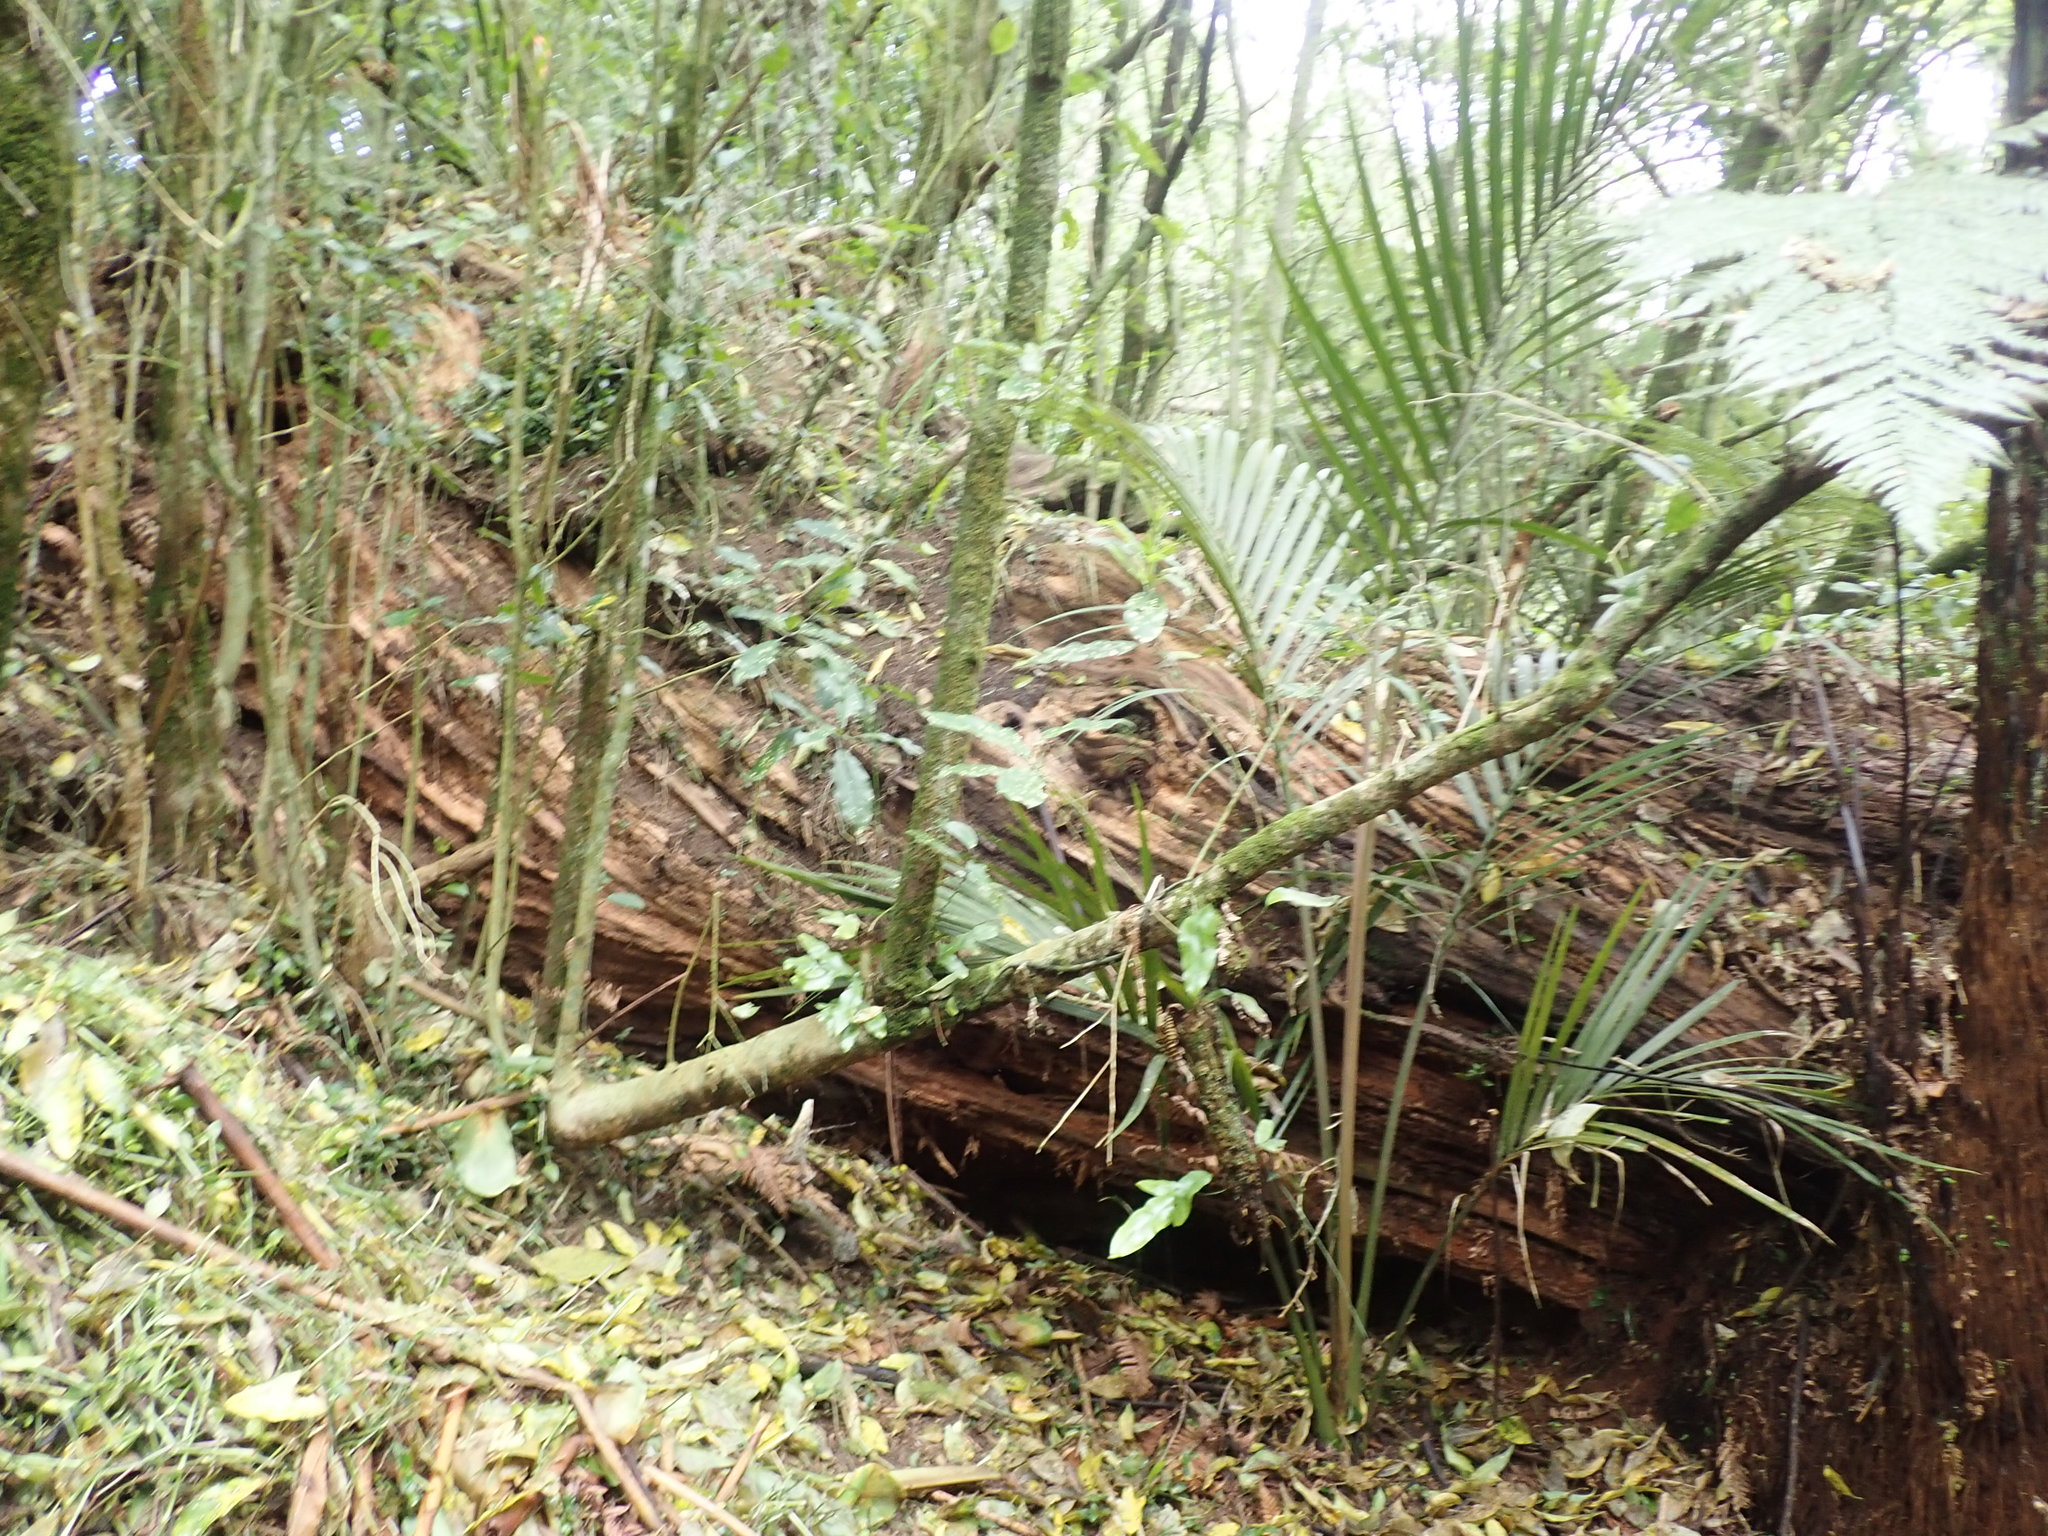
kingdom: Plantae
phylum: Tracheophyta
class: Liliopsida
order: Commelinales
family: Commelinaceae
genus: Tradescantia
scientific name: Tradescantia fluminensis
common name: Wandering-jew
